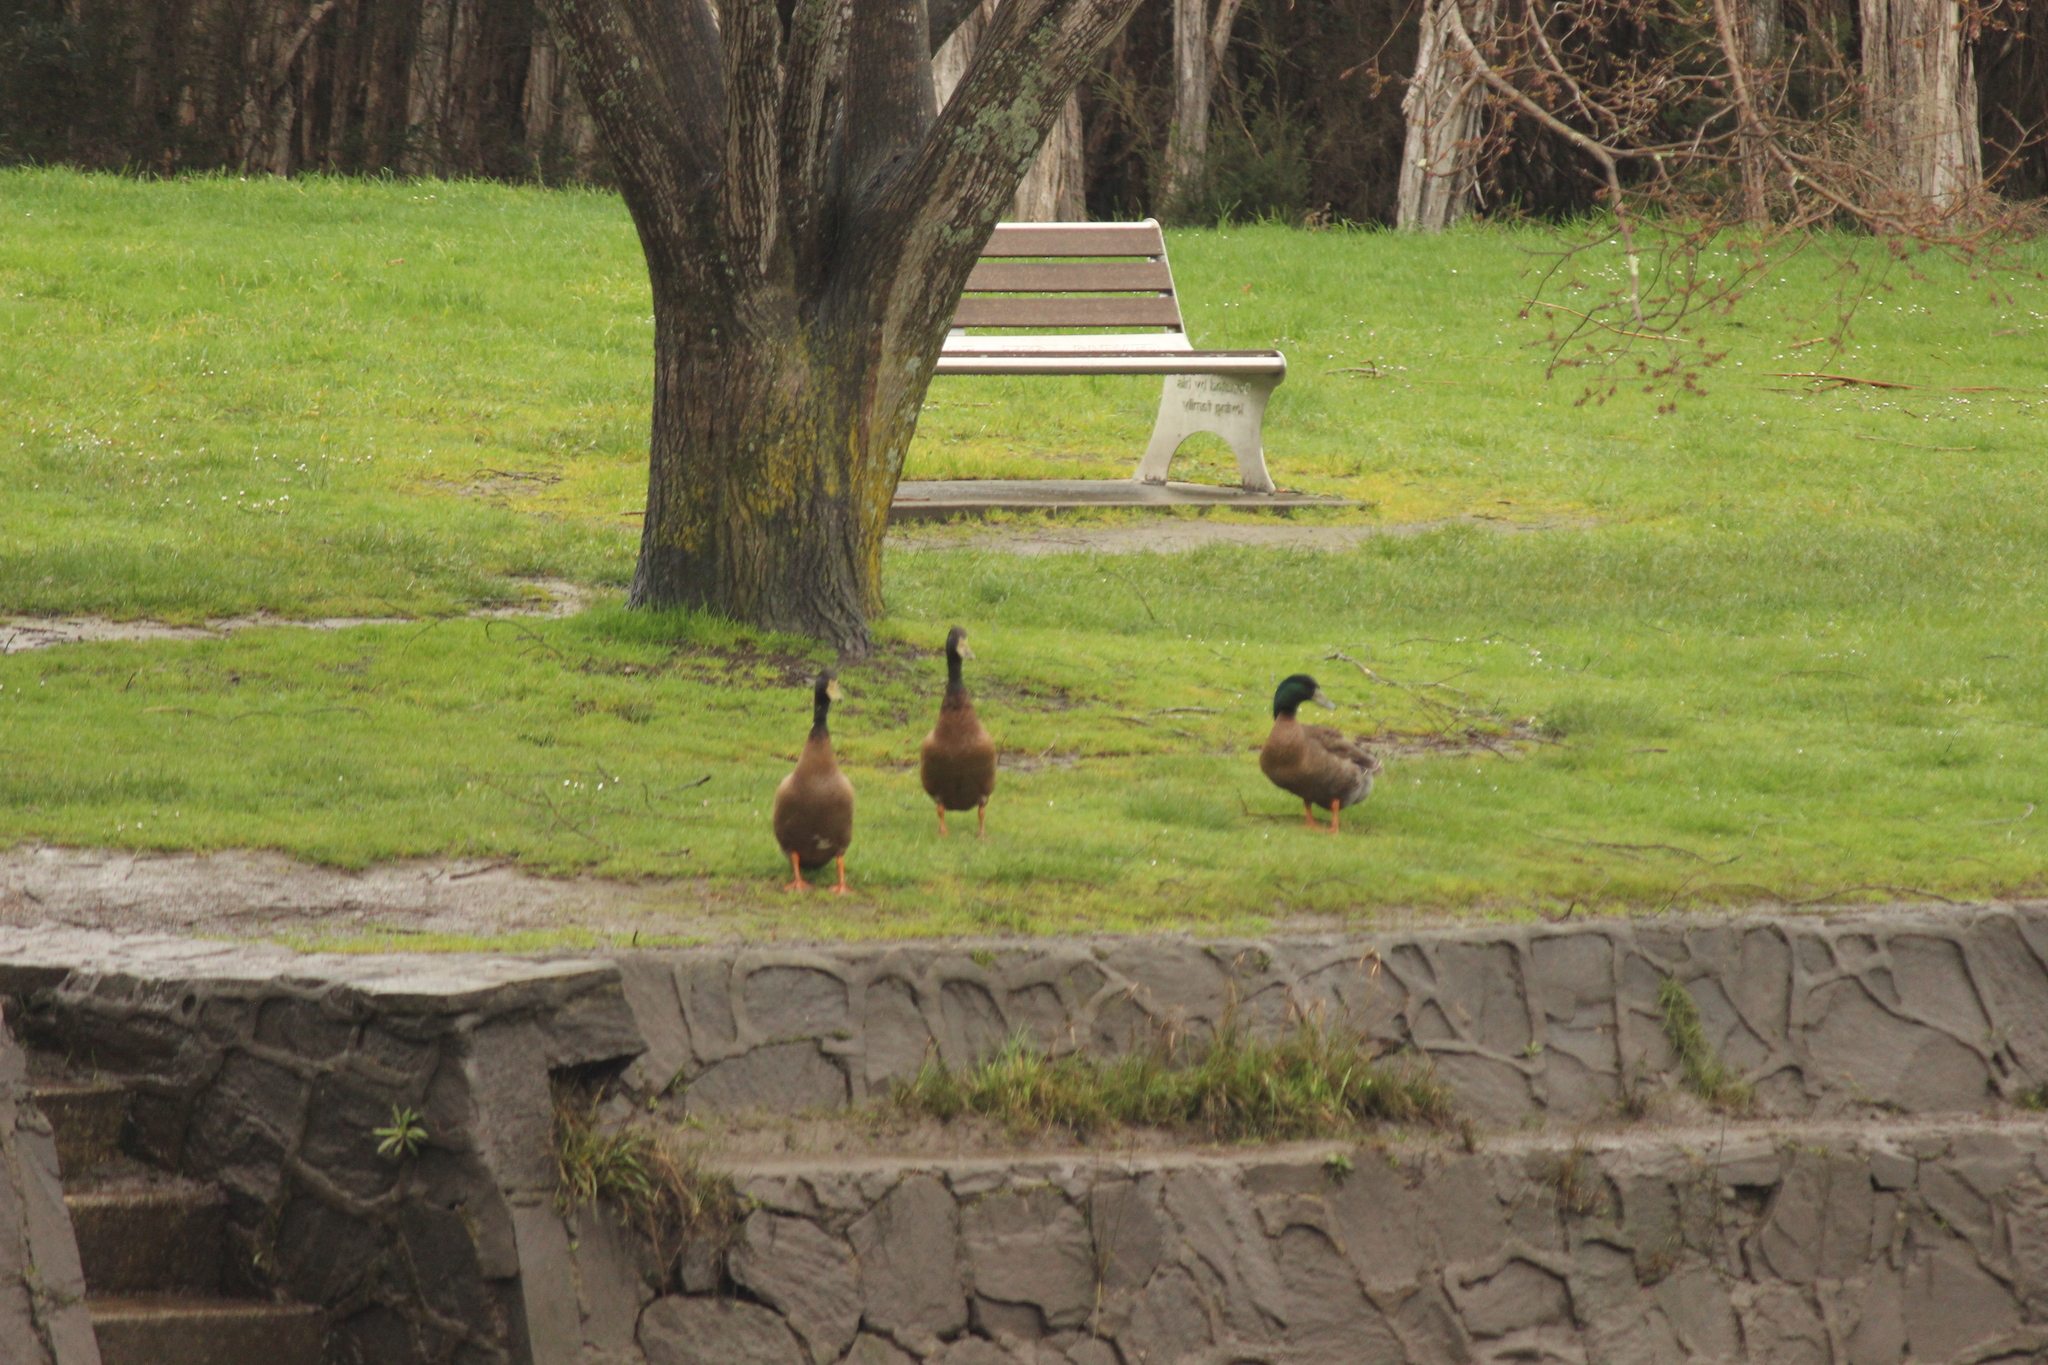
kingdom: Animalia
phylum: Chordata
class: Aves
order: Anseriformes
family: Anatidae
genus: Anas
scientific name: Anas platyrhynchos
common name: Mallard
